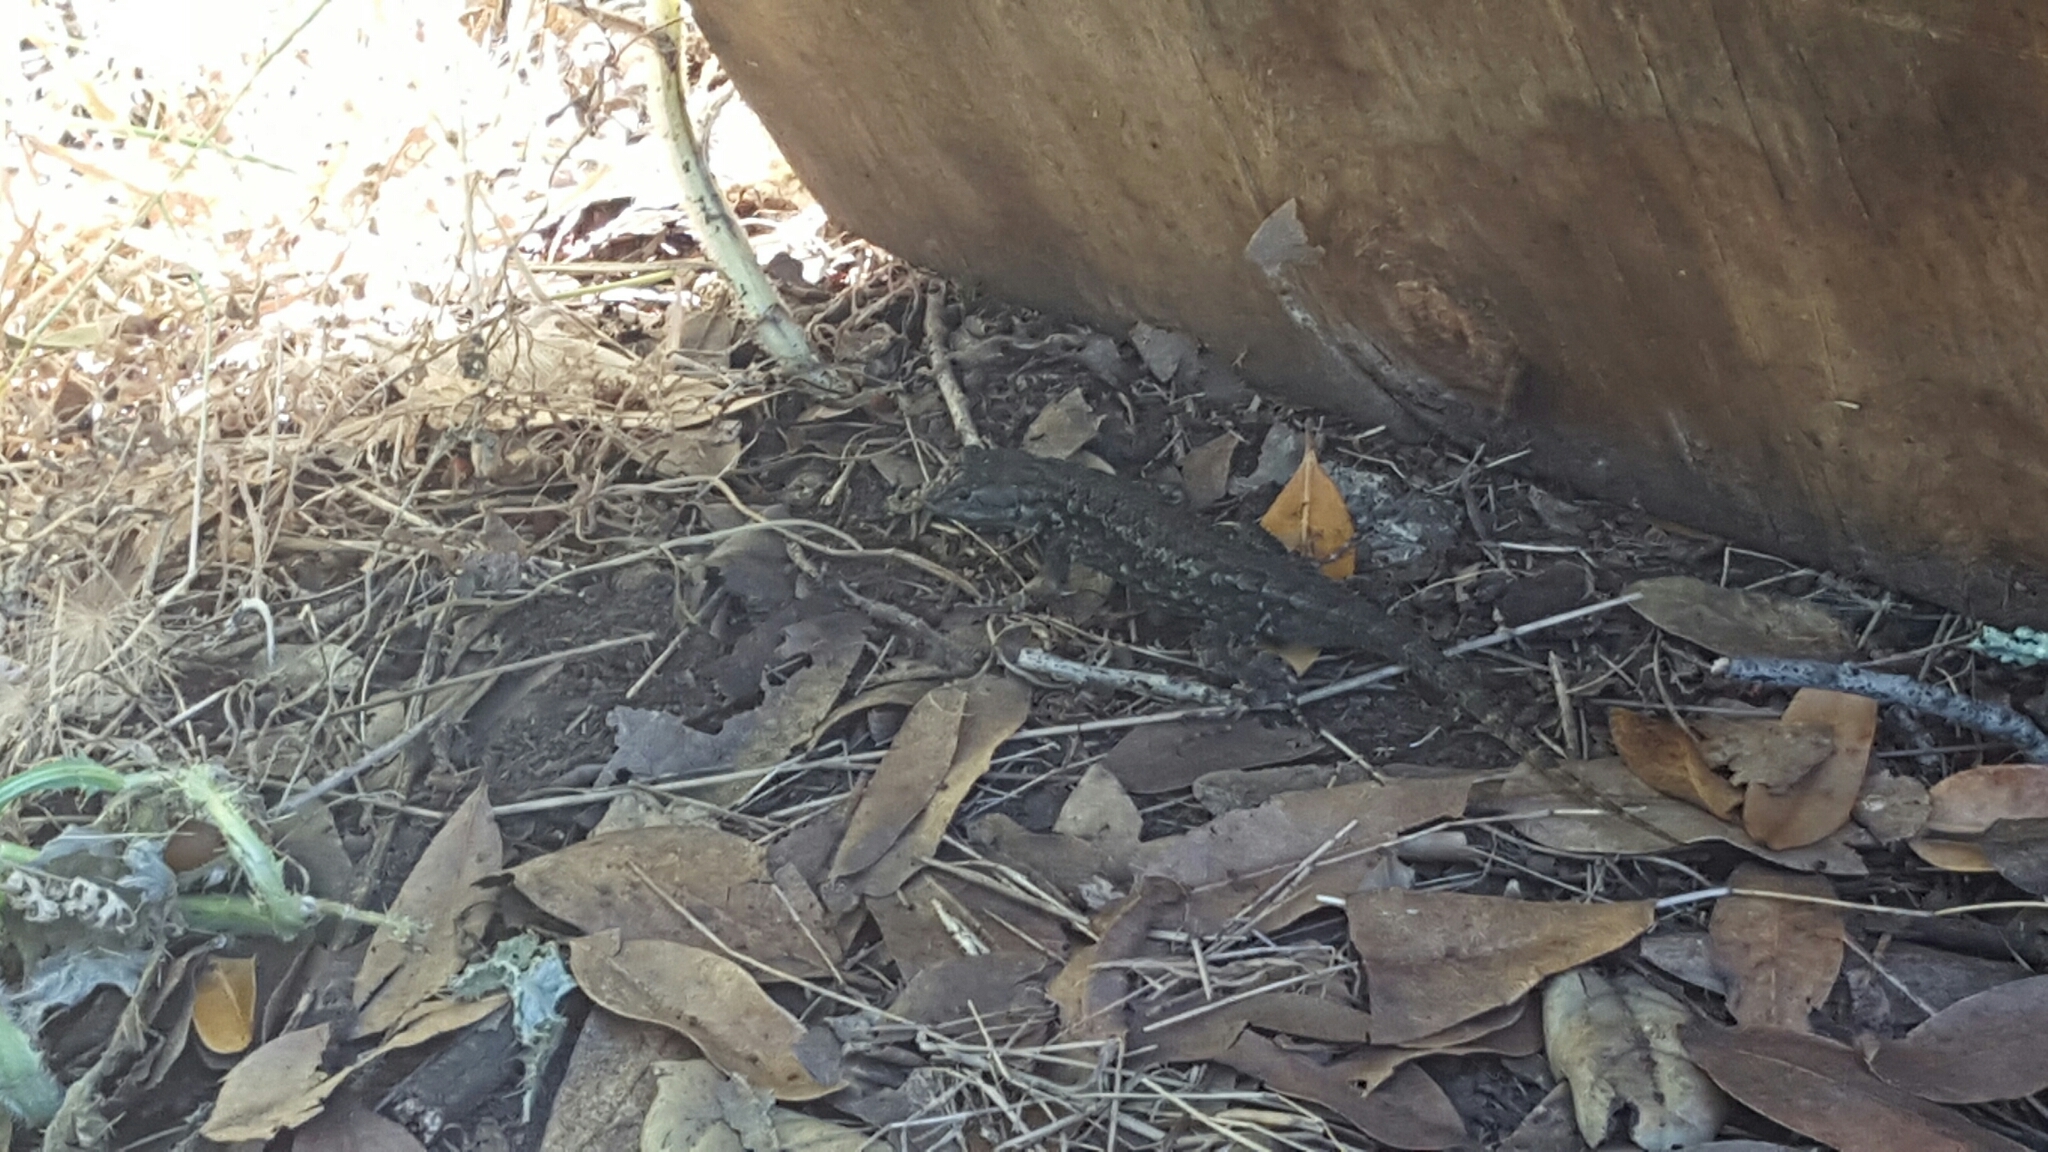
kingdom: Animalia
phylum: Chordata
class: Squamata
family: Phrynosomatidae
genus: Sceloporus
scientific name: Sceloporus occidentalis
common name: Western fence lizard
